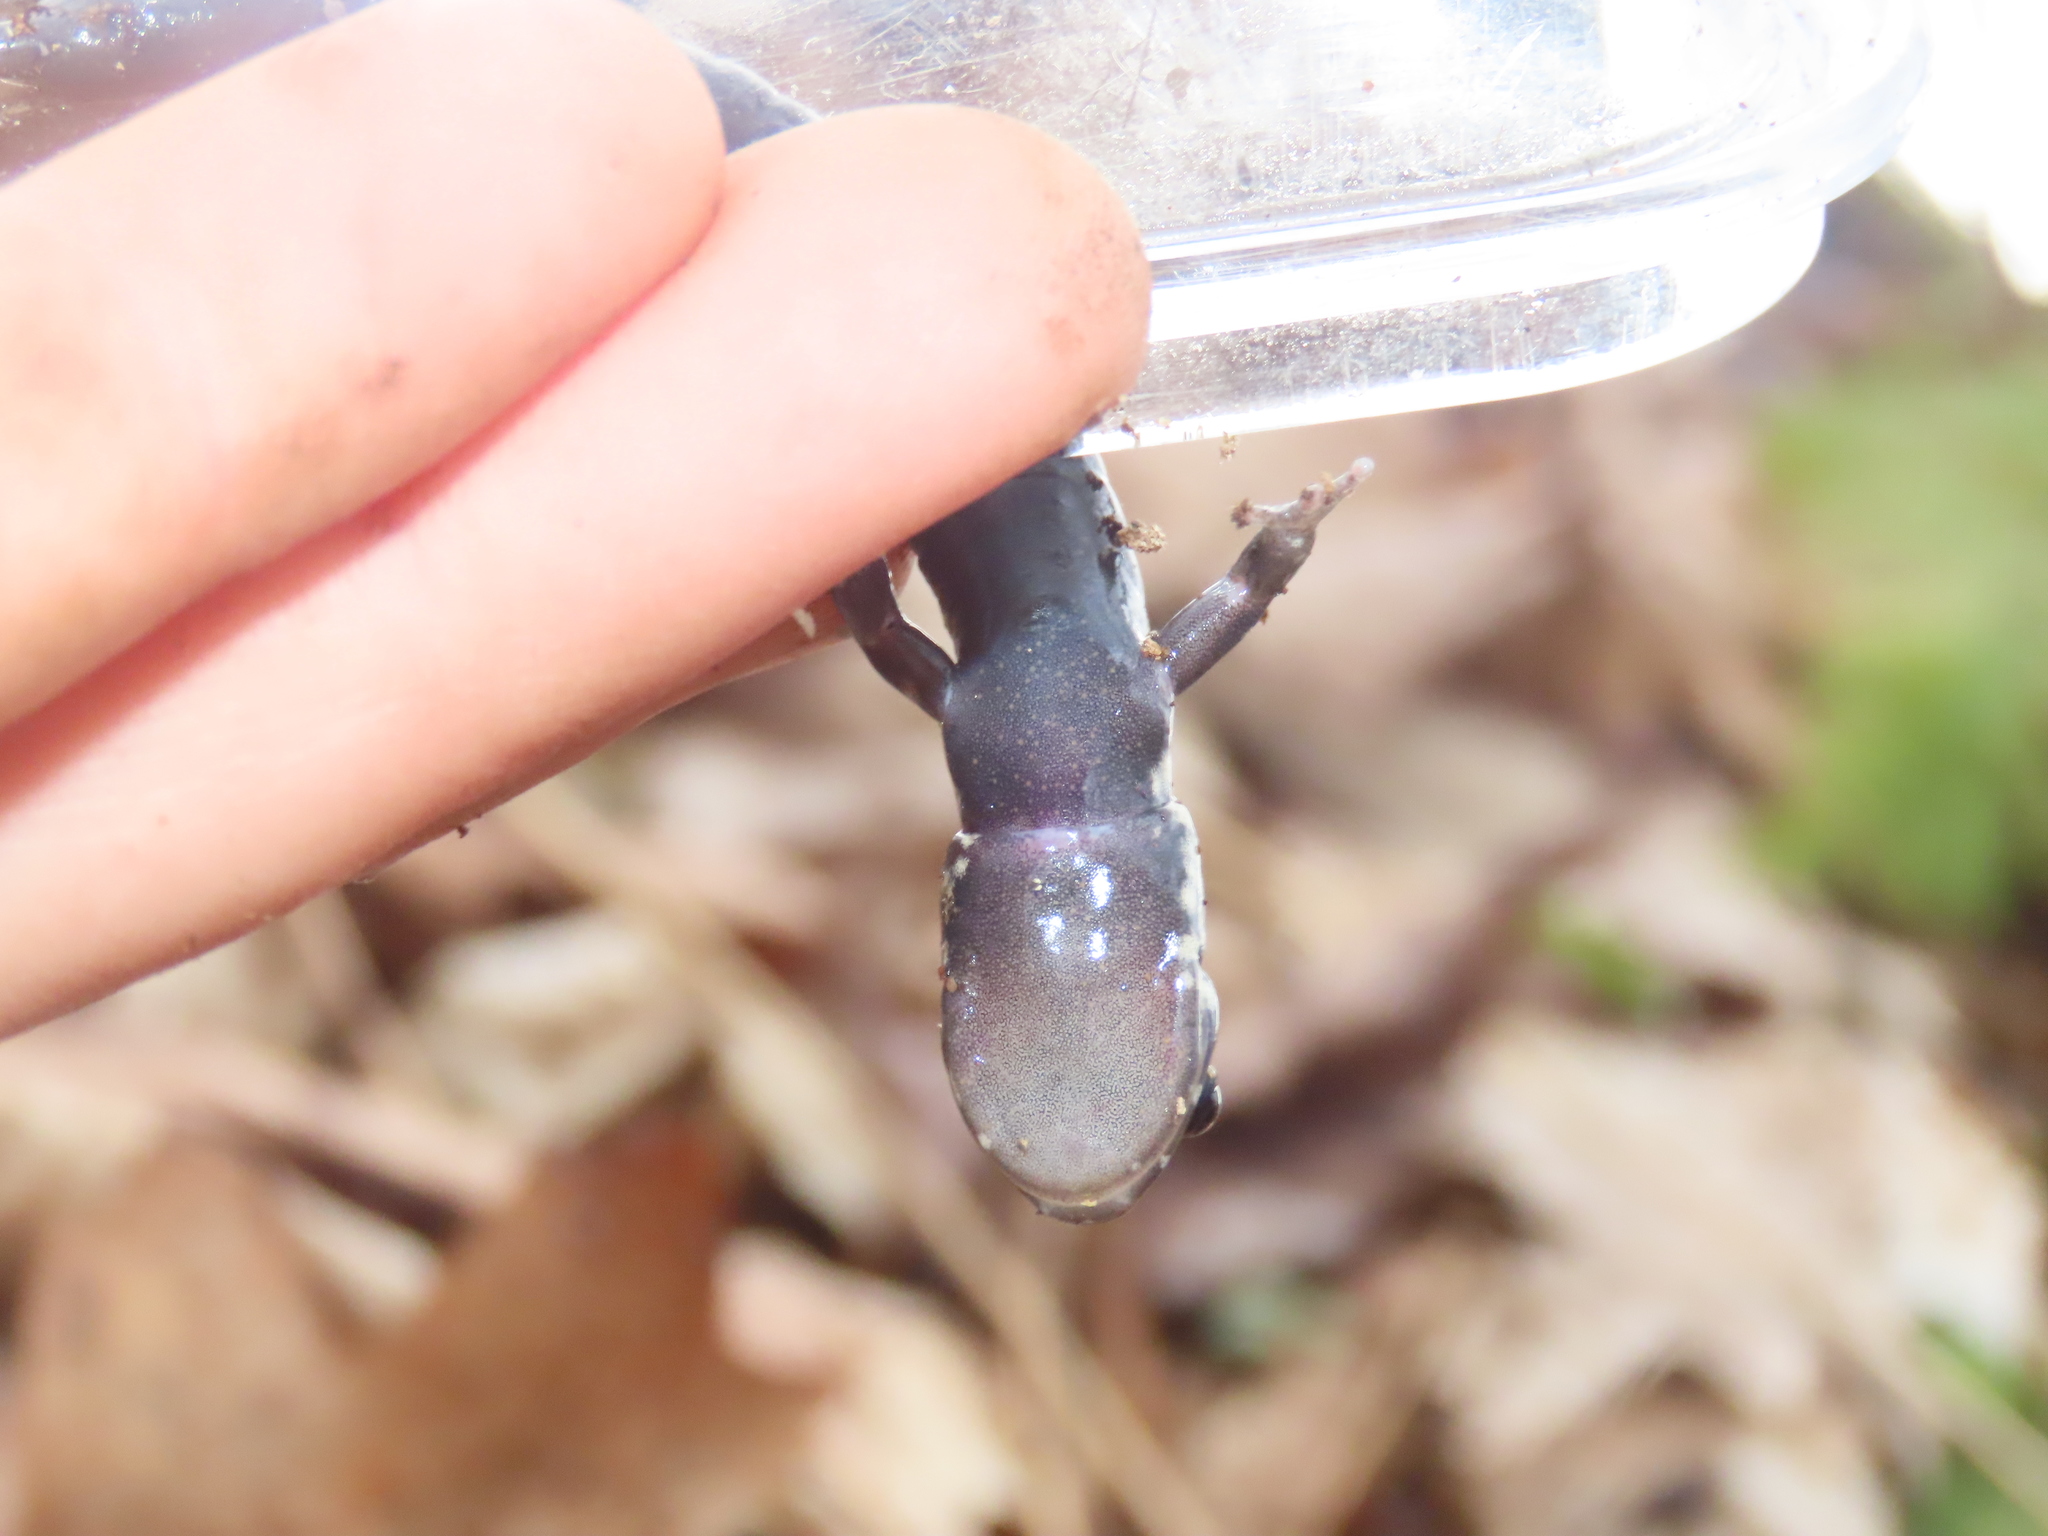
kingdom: Animalia
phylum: Chordata
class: Amphibia
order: Caudata
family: Plethodontidae
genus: Plethodon
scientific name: Plethodon glutinosus
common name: Northern slimy salamander
